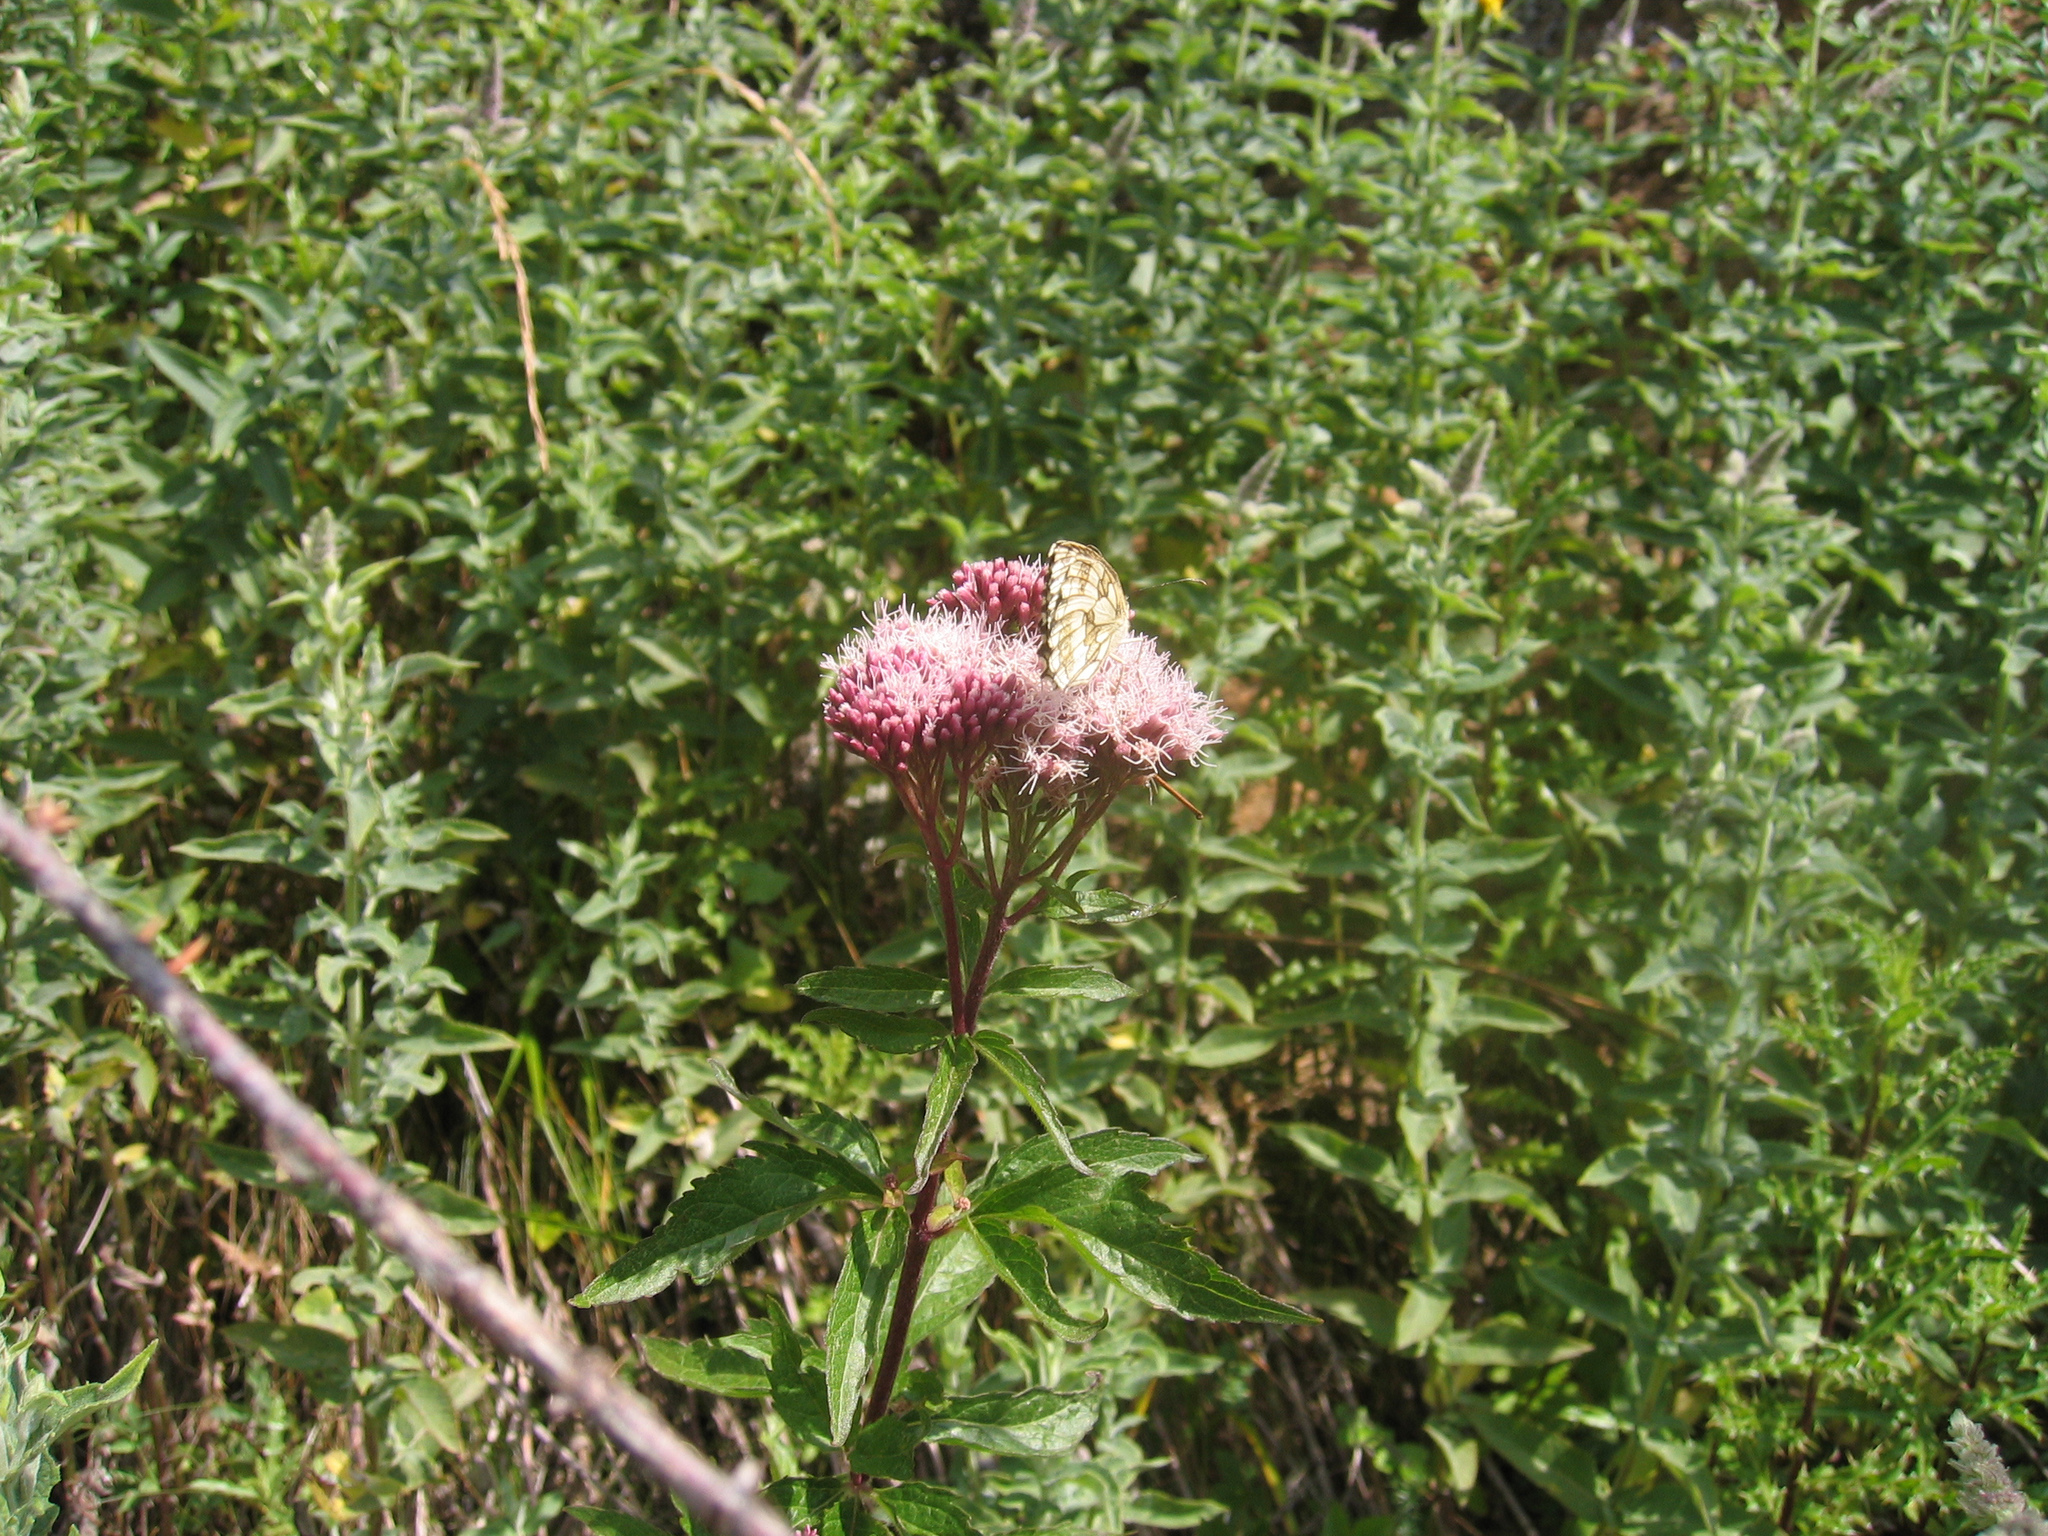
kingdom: Animalia
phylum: Arthropoda
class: Insecta
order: Lepidoptera
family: Nymphalidae
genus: Melanargia
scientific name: Melanargia galathea
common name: Marbled white
